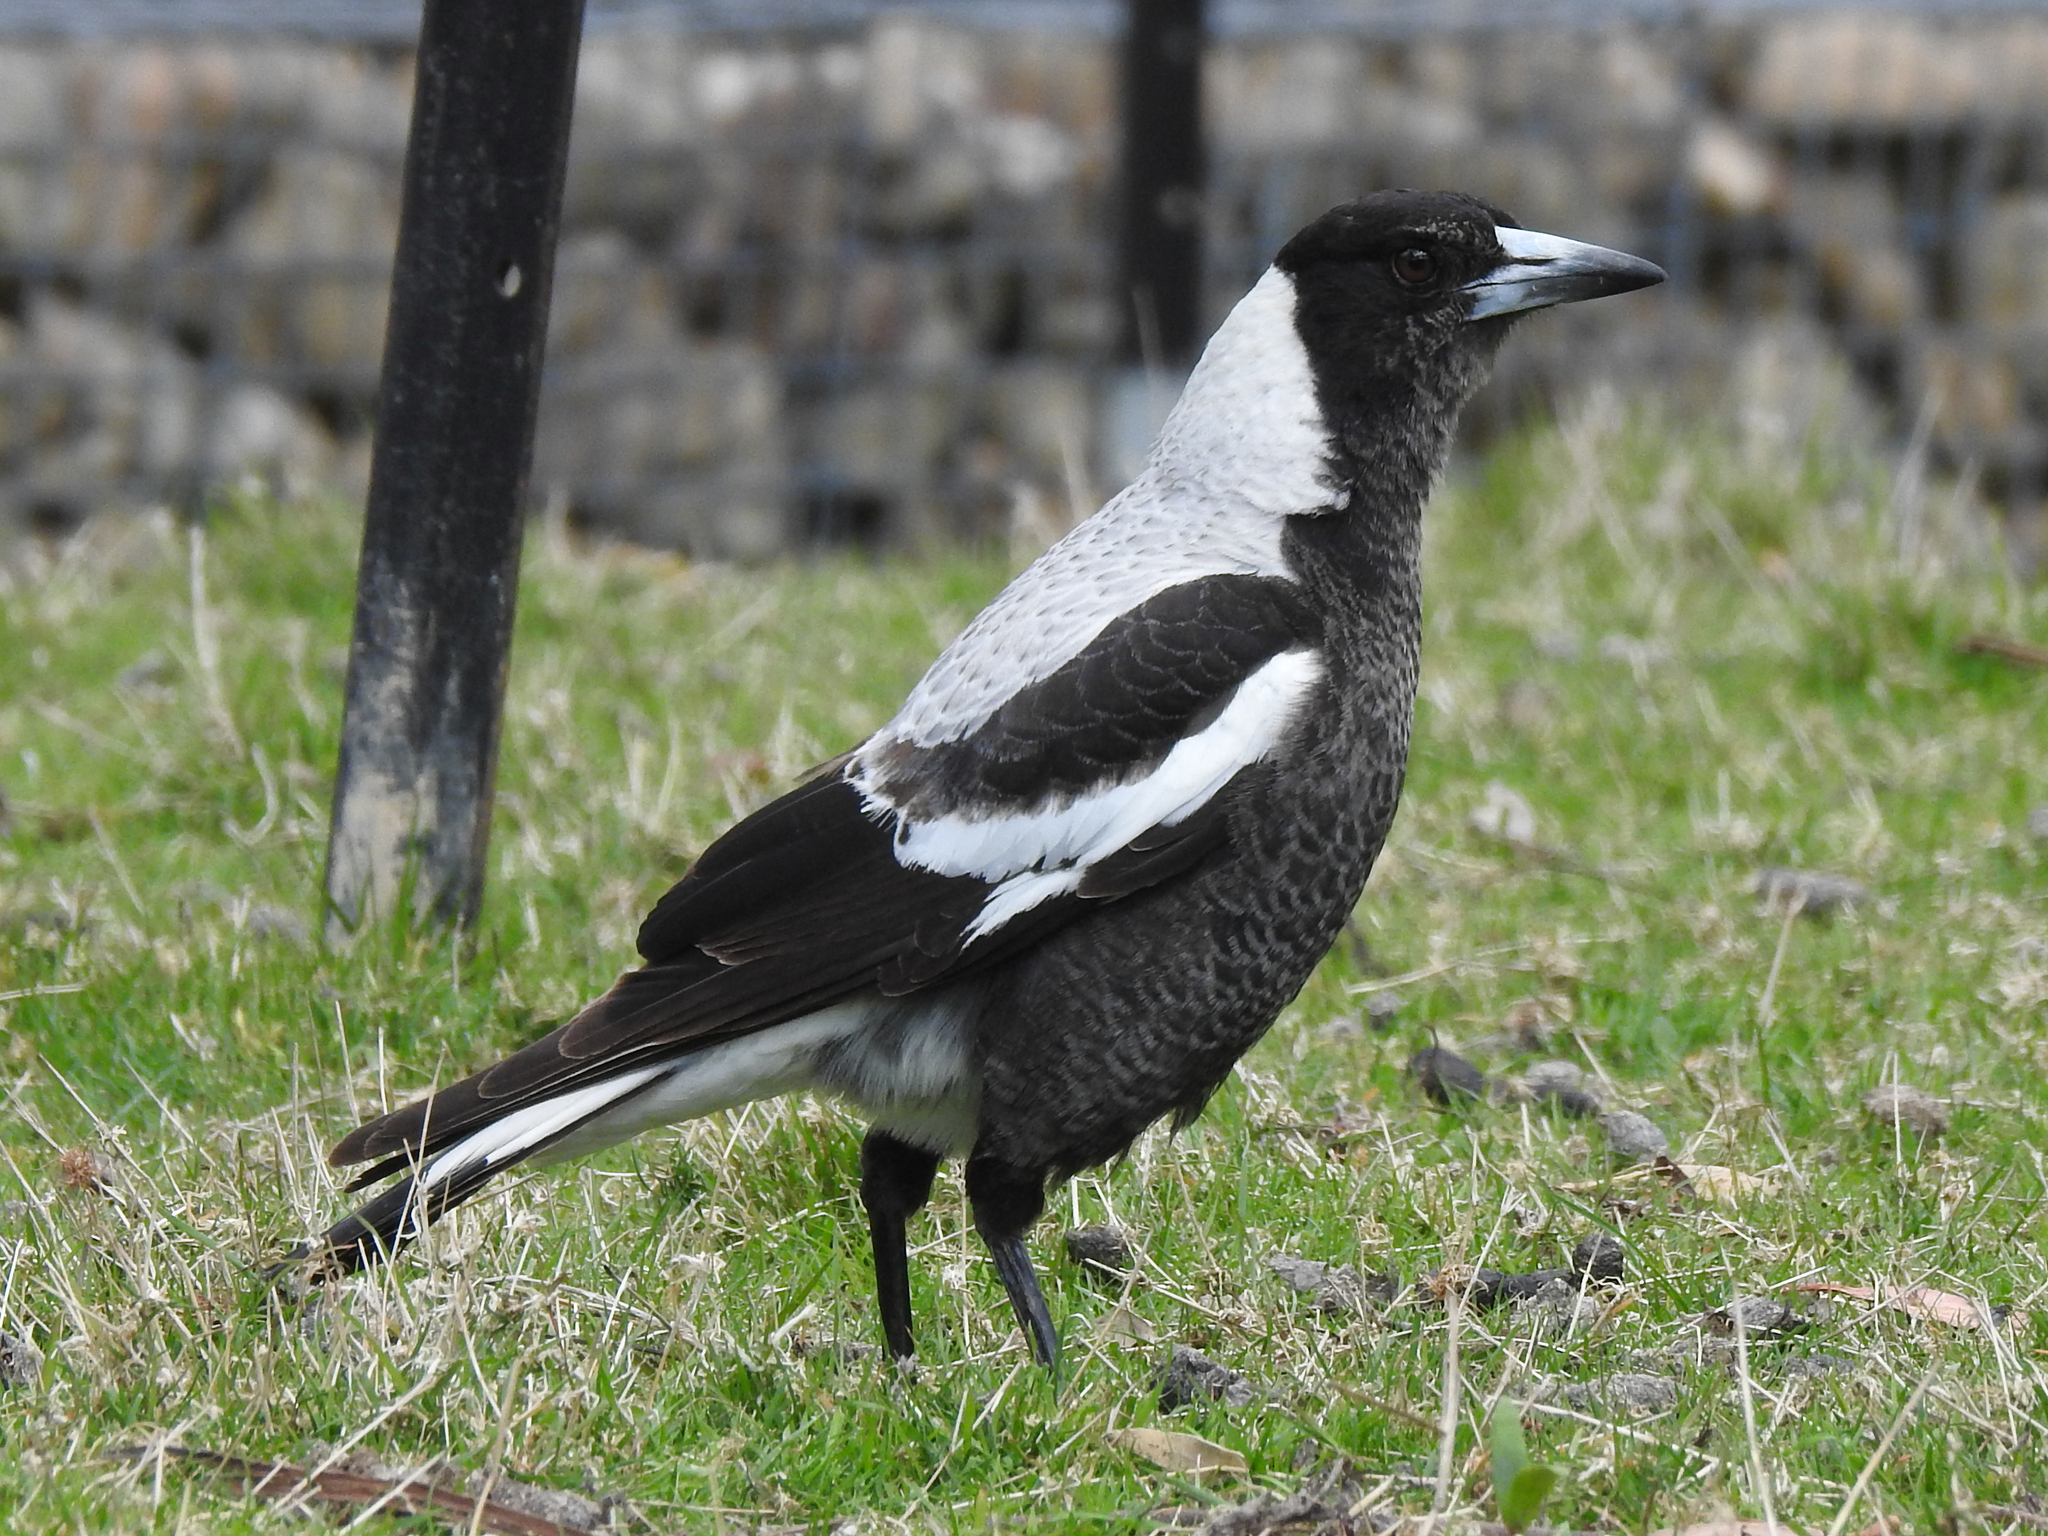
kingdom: Animalia
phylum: Chordata
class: Aves
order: Passeriformes
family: Cracticidae
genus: Gymnorhina
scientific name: Gymnorhina tibicen
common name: Australian magpie
